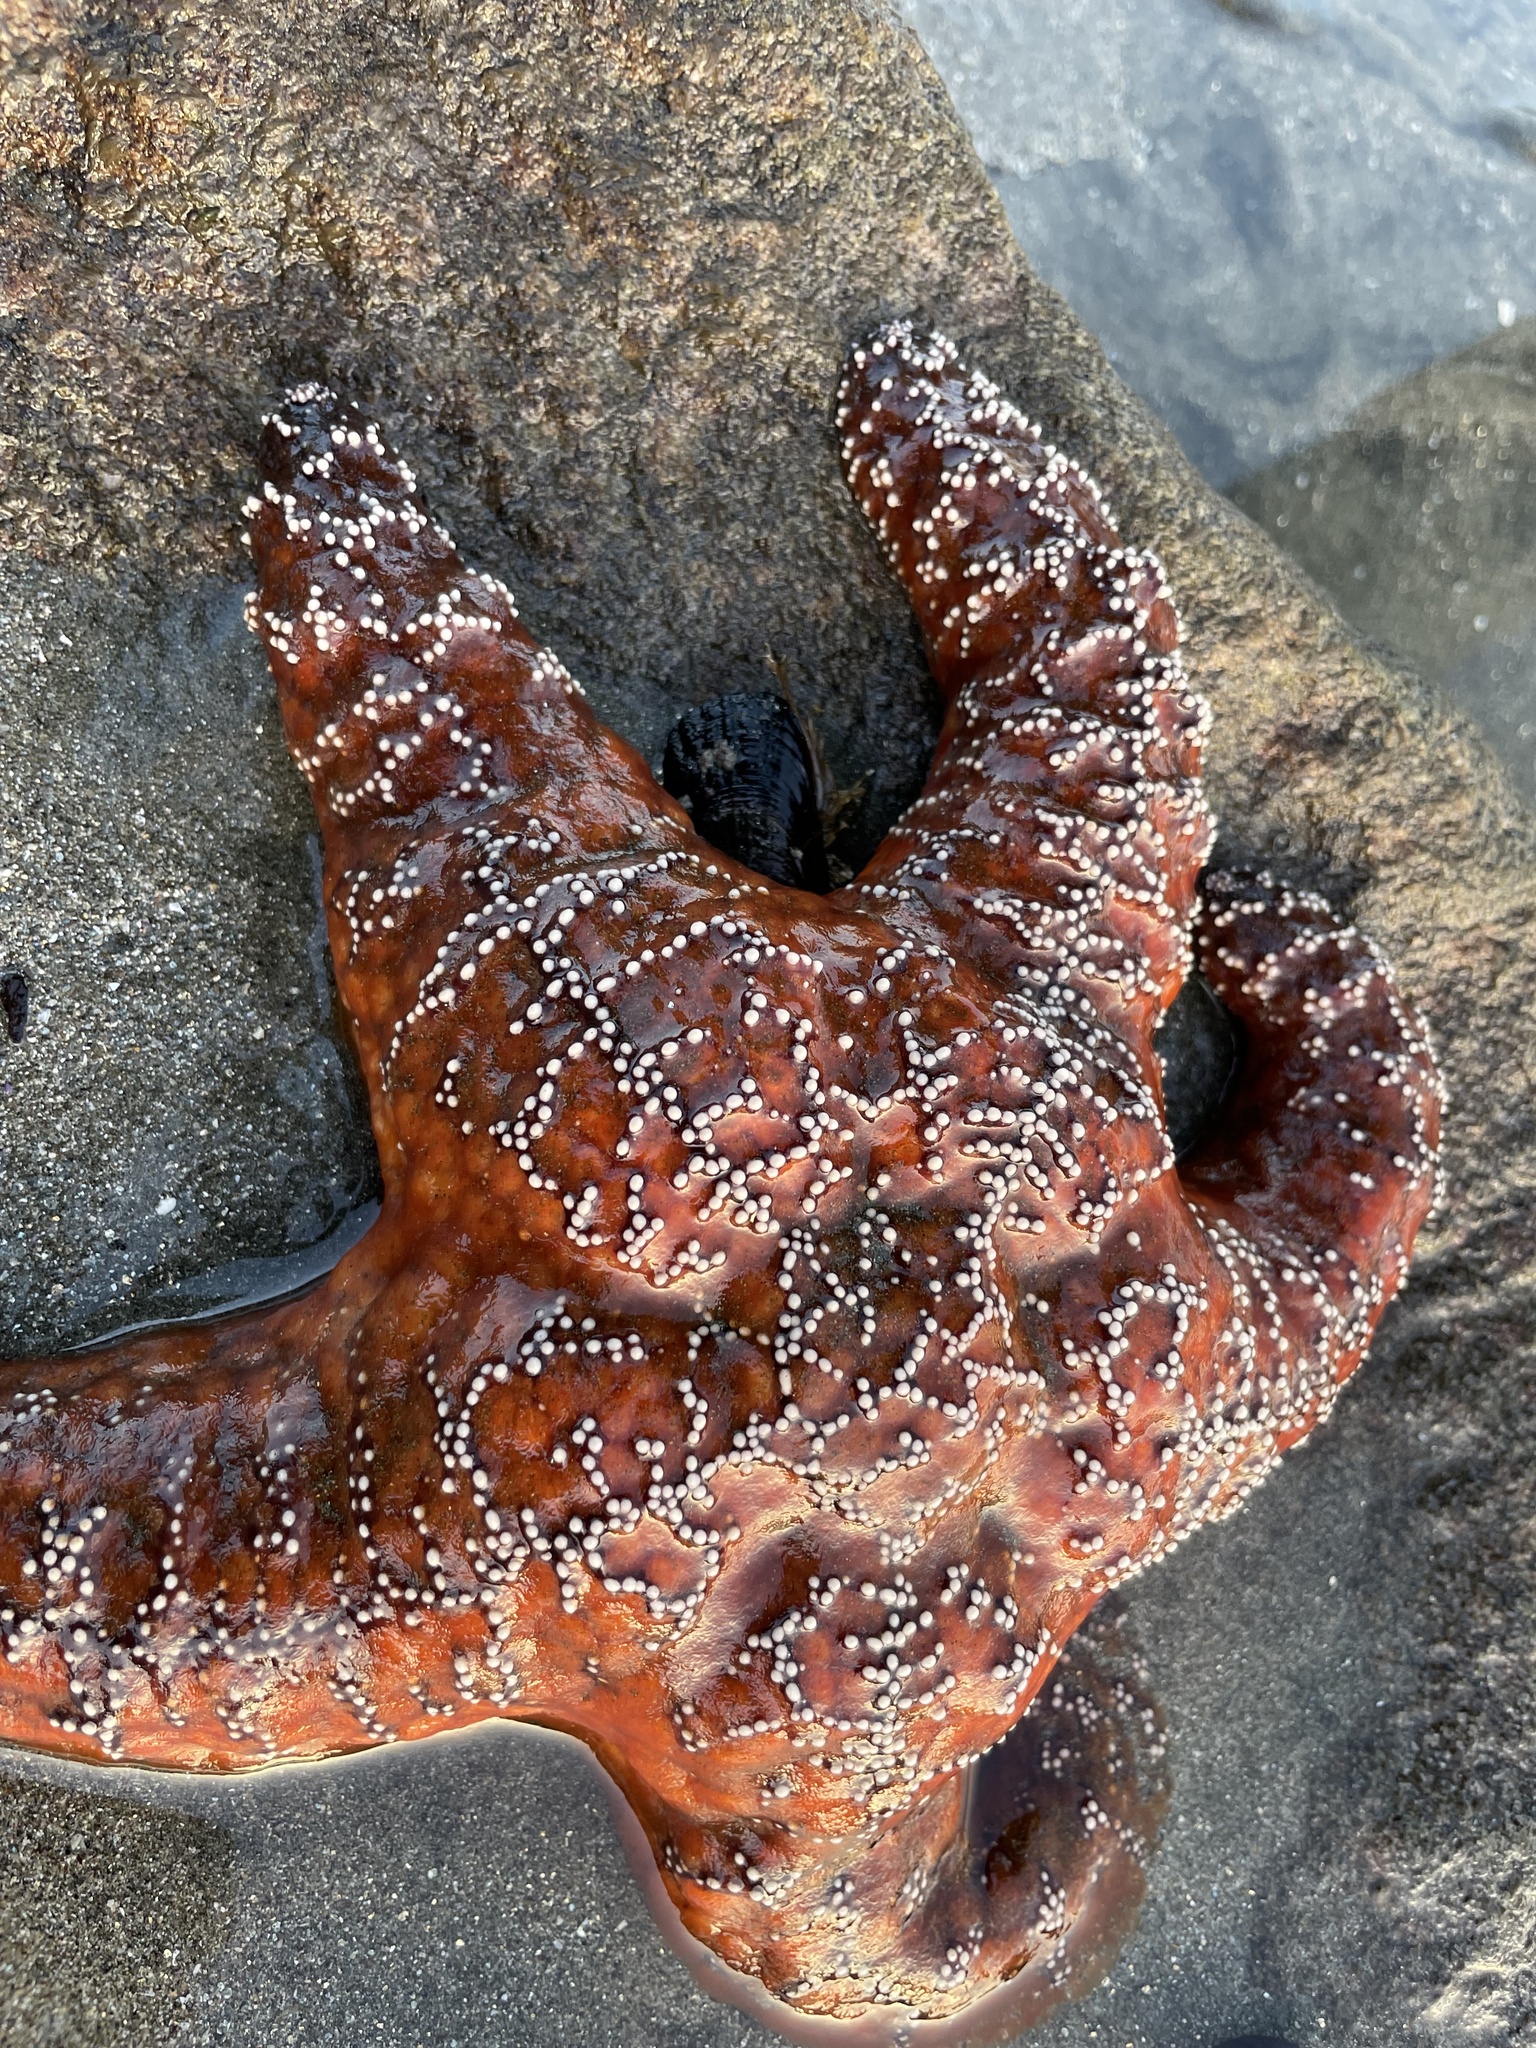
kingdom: Animalia
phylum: Echinodermata
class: Asteroidea
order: Forcipulatida
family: Asteriidae
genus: Pisaster
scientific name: Pisaster ochraceus
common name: Ochre stars
